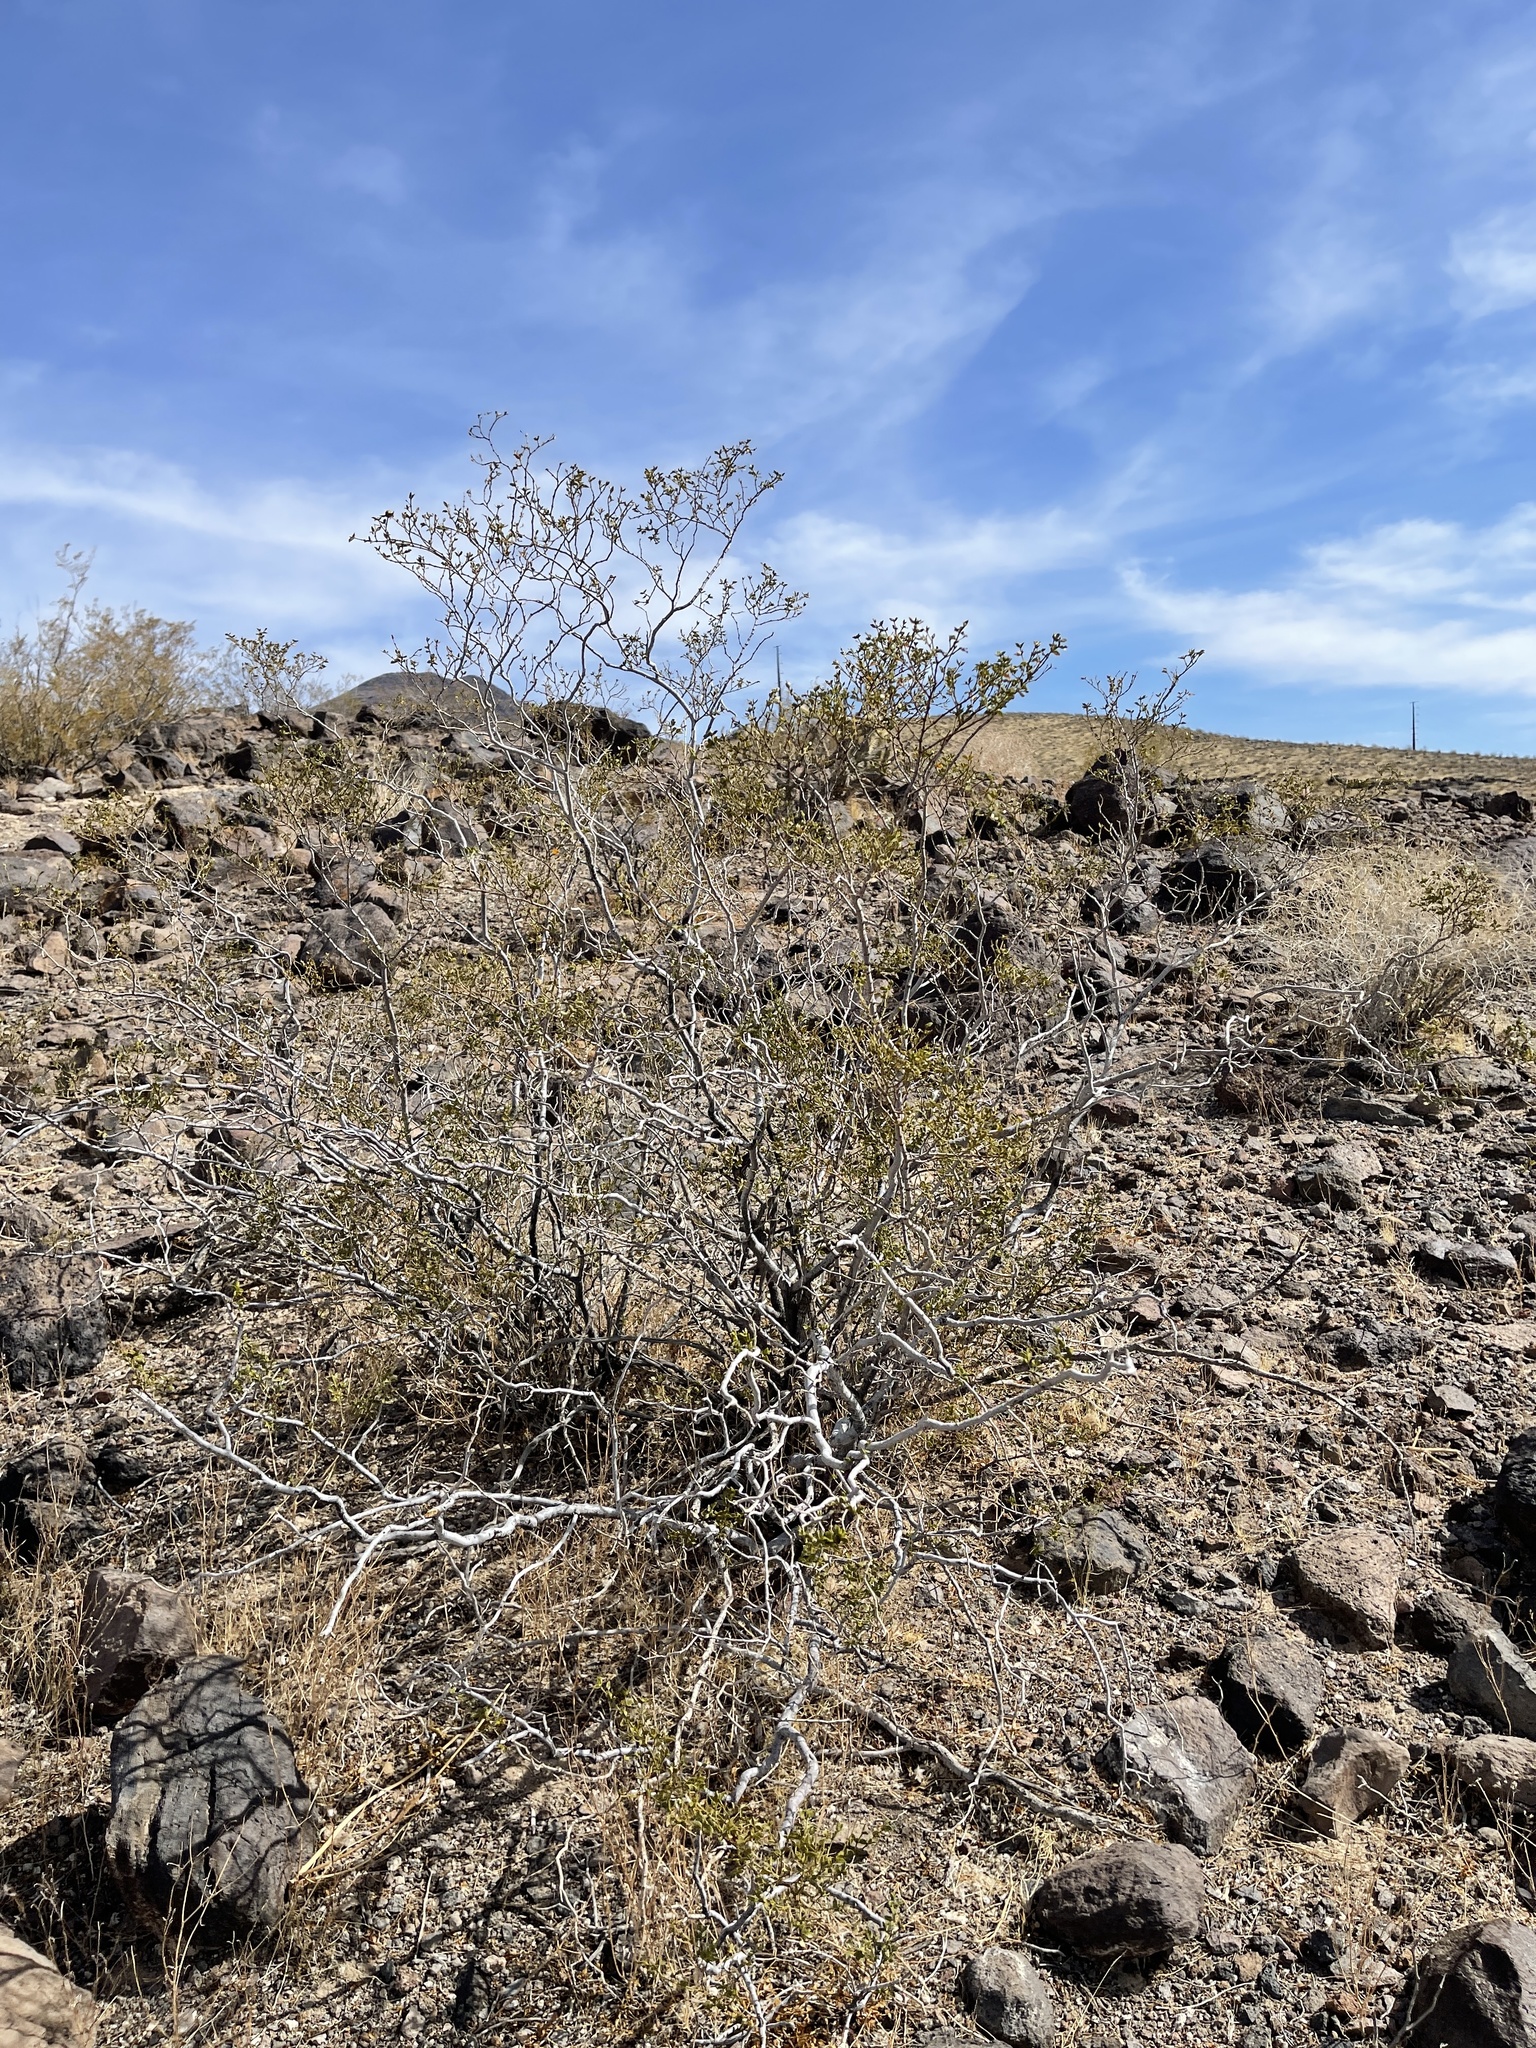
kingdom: Plantae
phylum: Tracheophyta
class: Magnoliopsida
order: Zygophyllales
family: Zygophyllaceae
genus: Larrea
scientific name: Larrea tridentata
